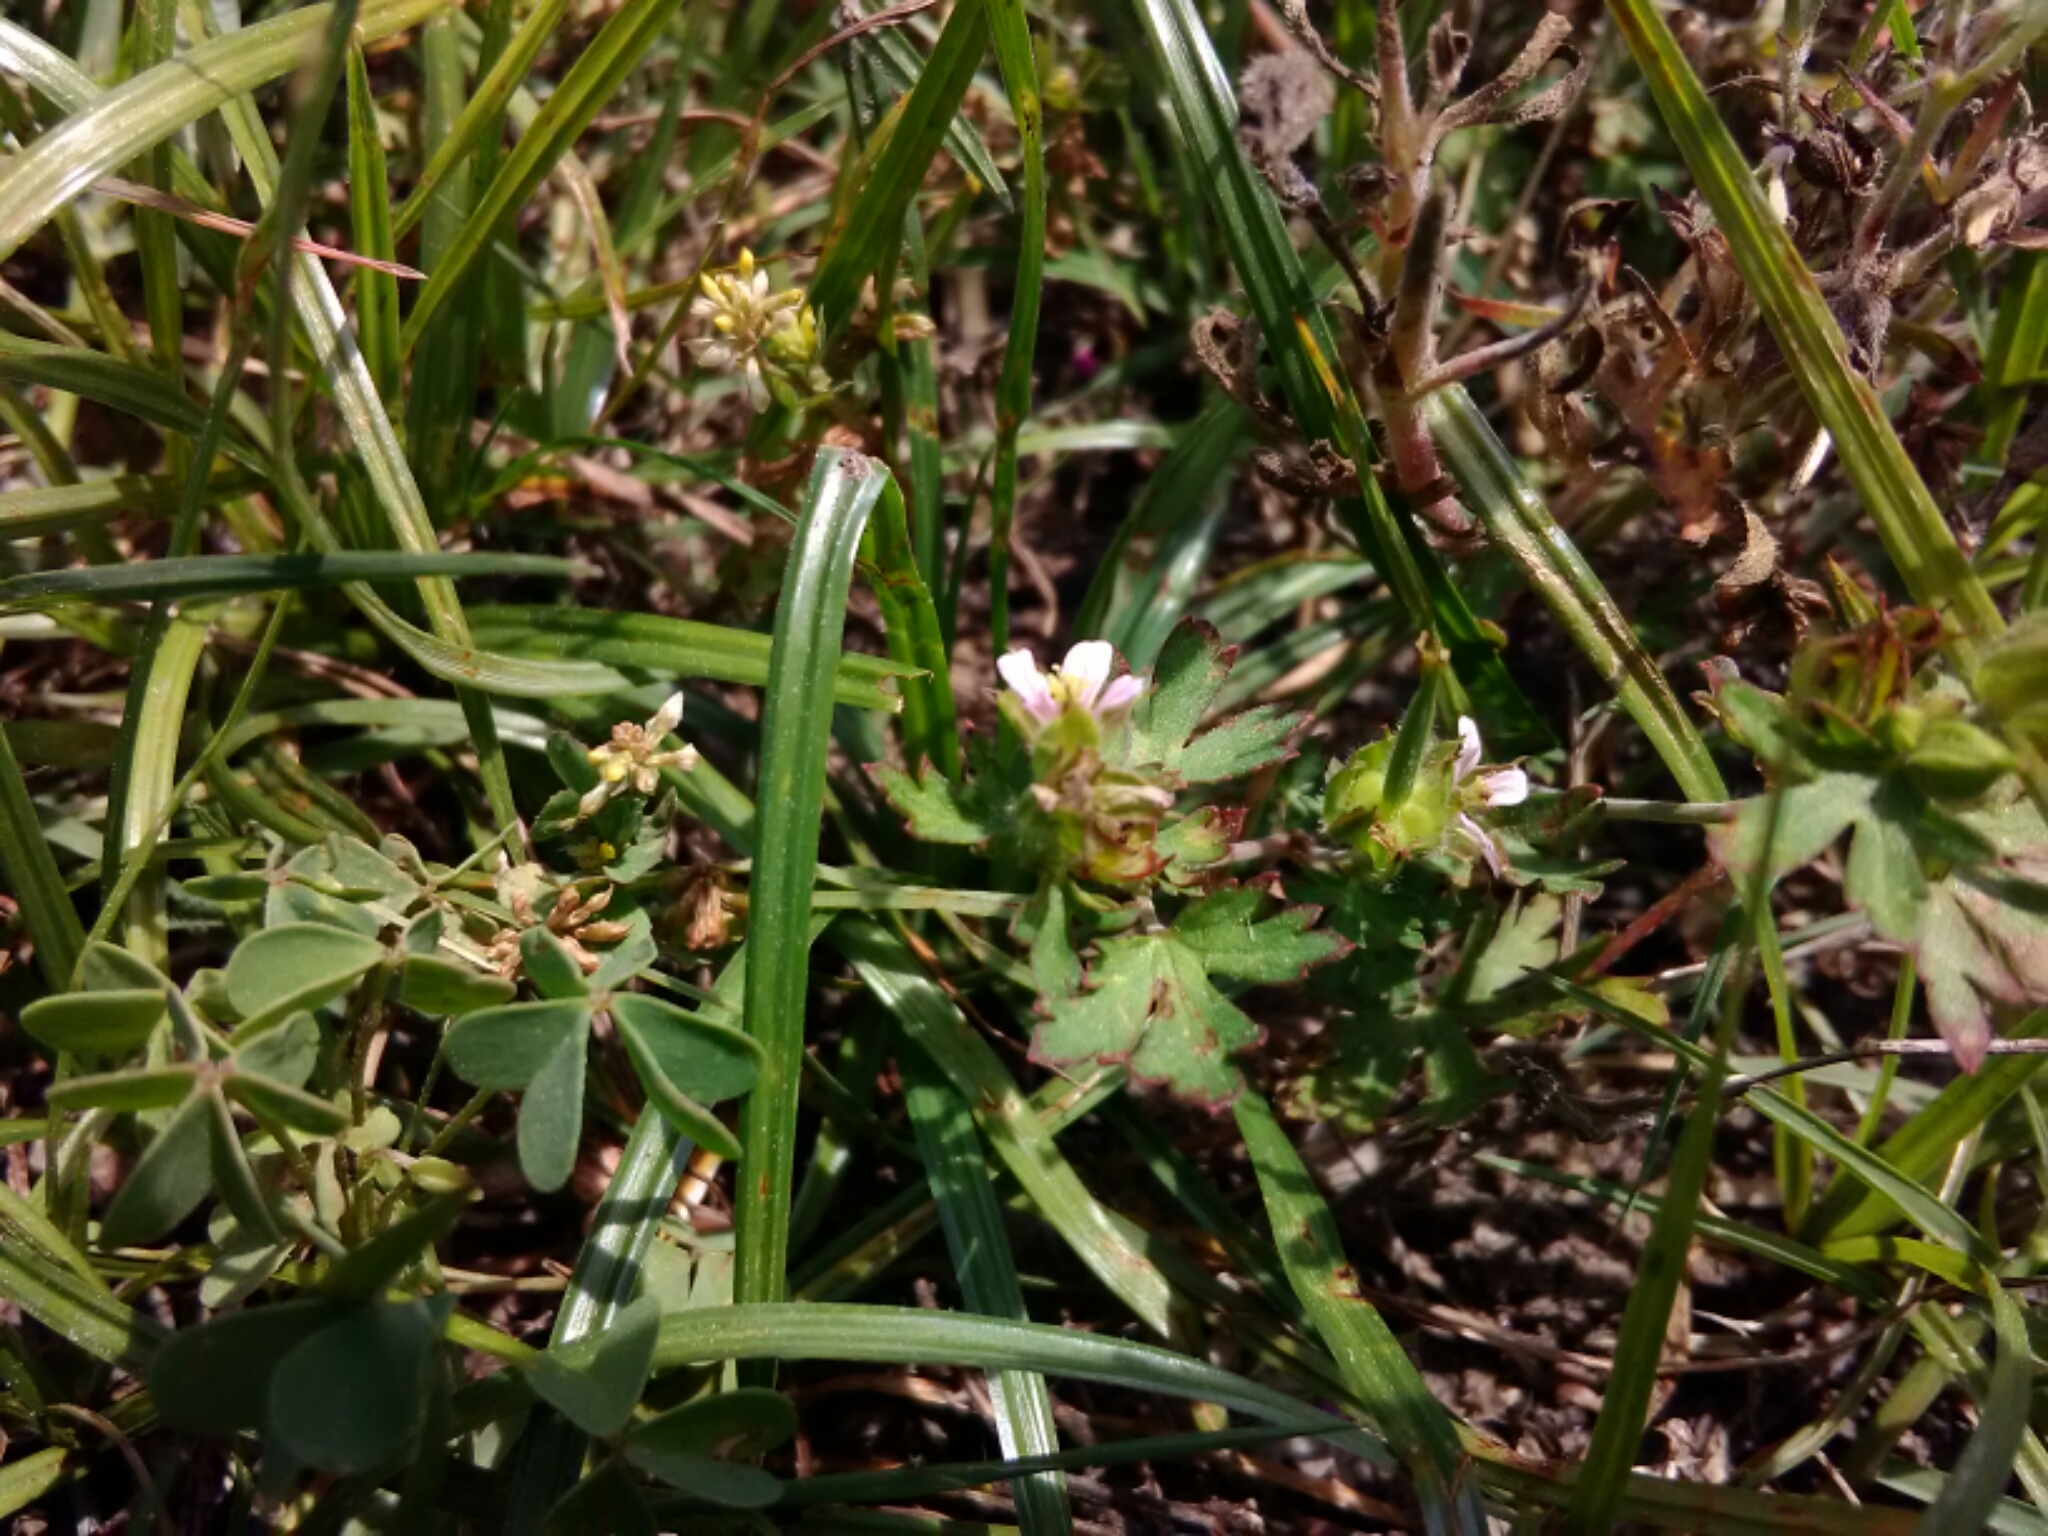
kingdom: Plantae
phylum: Tracheophyta
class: Magnoliopsida
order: Geraniales
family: Geraniaceae
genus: Geranium
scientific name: Geranium carolinianum
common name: Carolina crane's-bill
